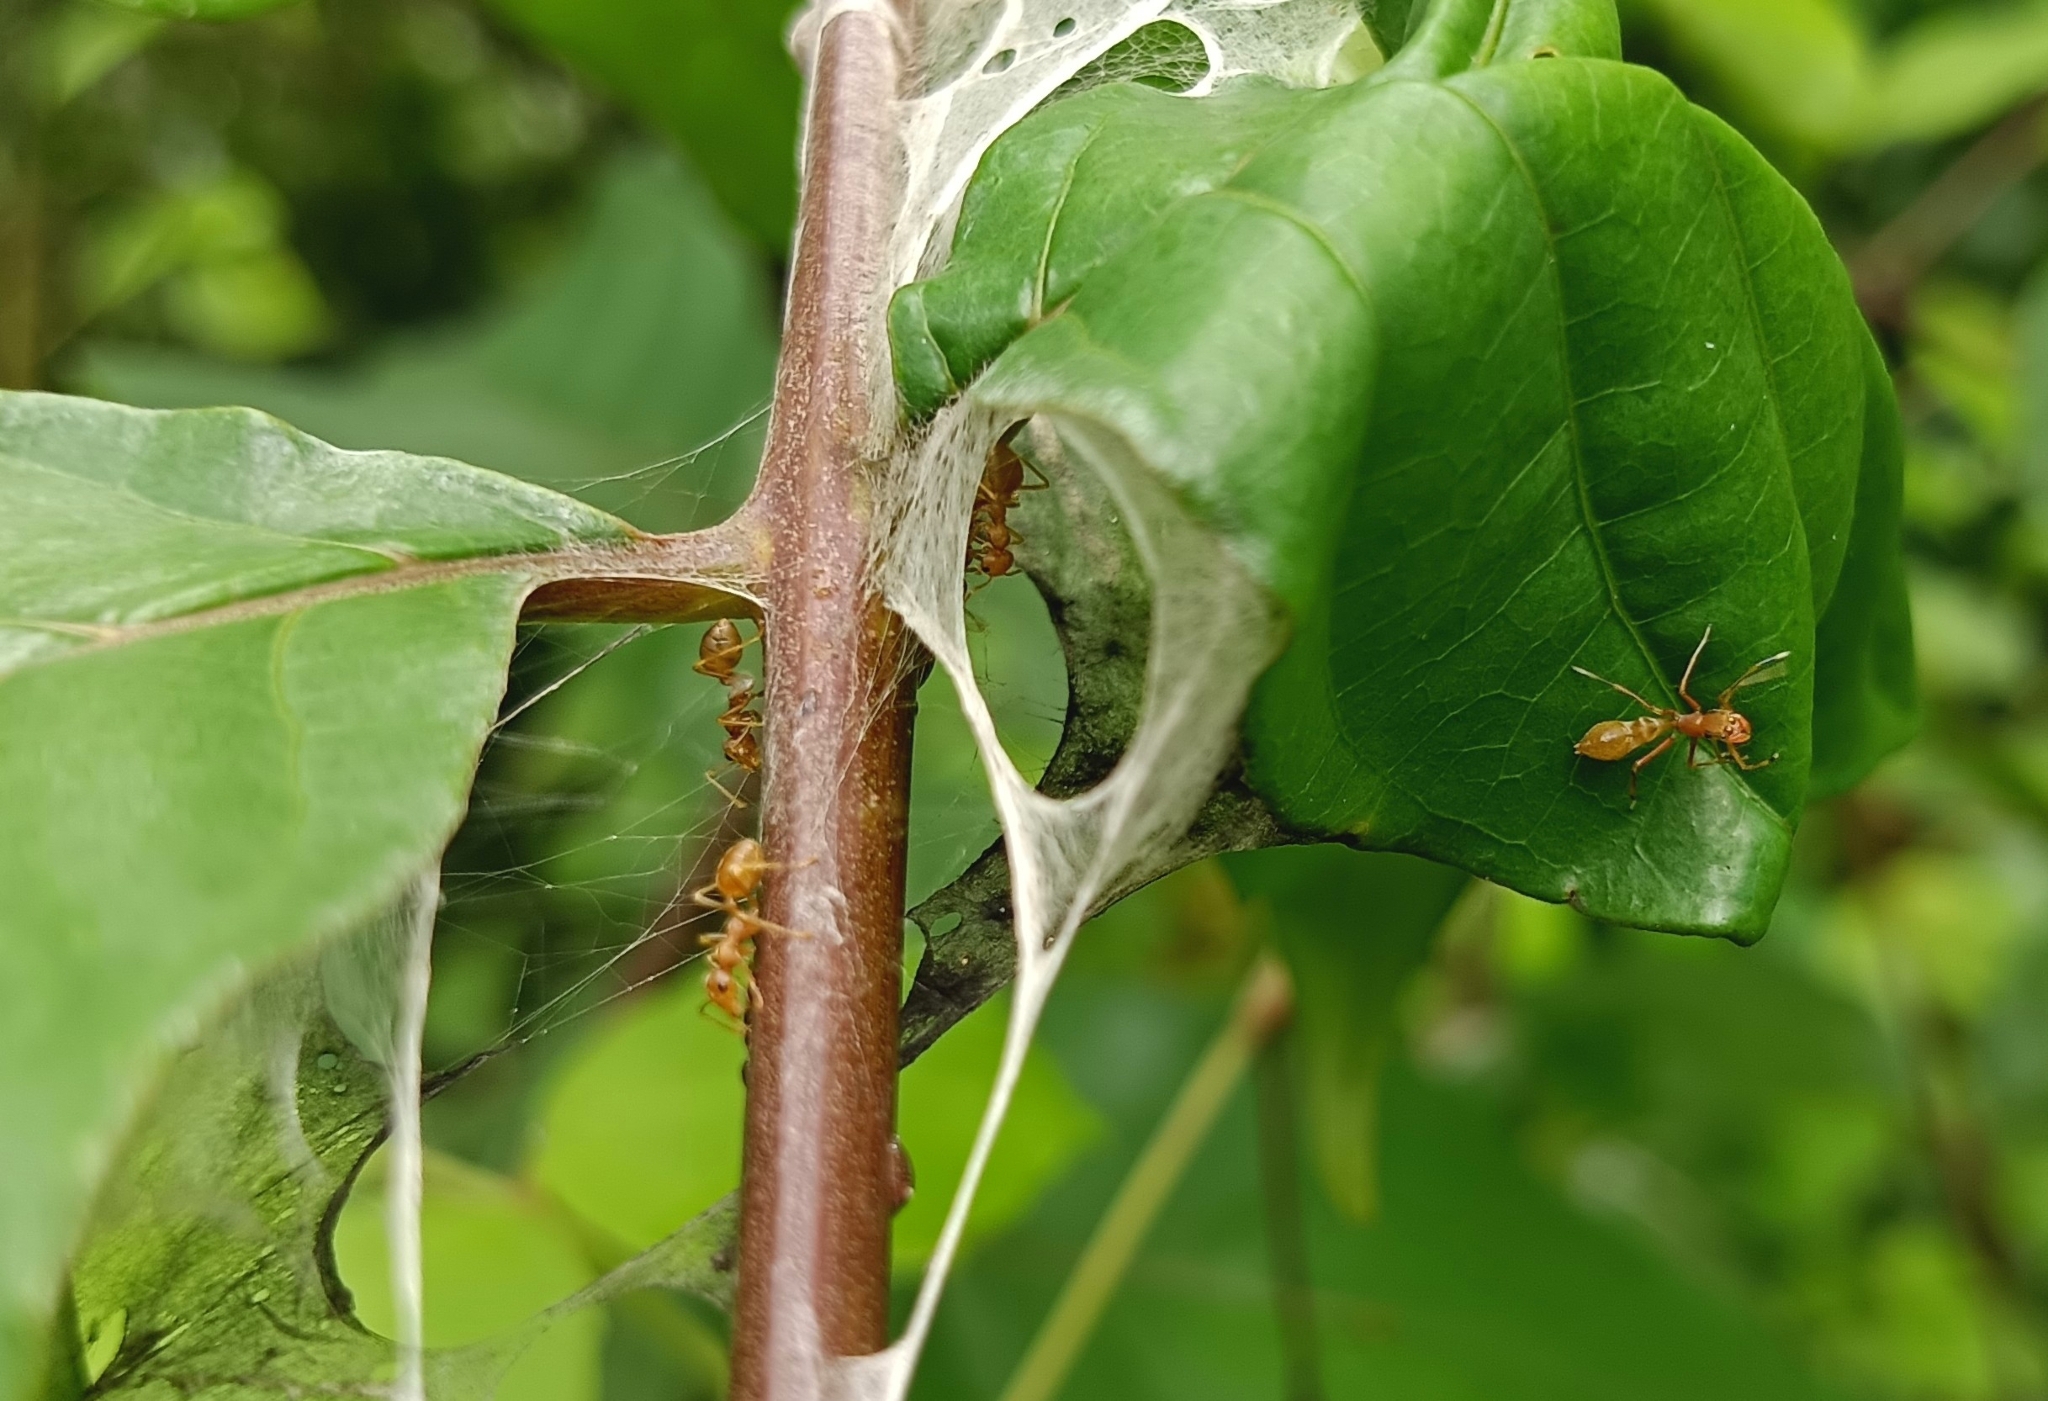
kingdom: Animalia
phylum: Arthropoda
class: Arachnida
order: Araneae
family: Salticidae
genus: Myrmaplata
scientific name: Myrmaplata plataleoides
